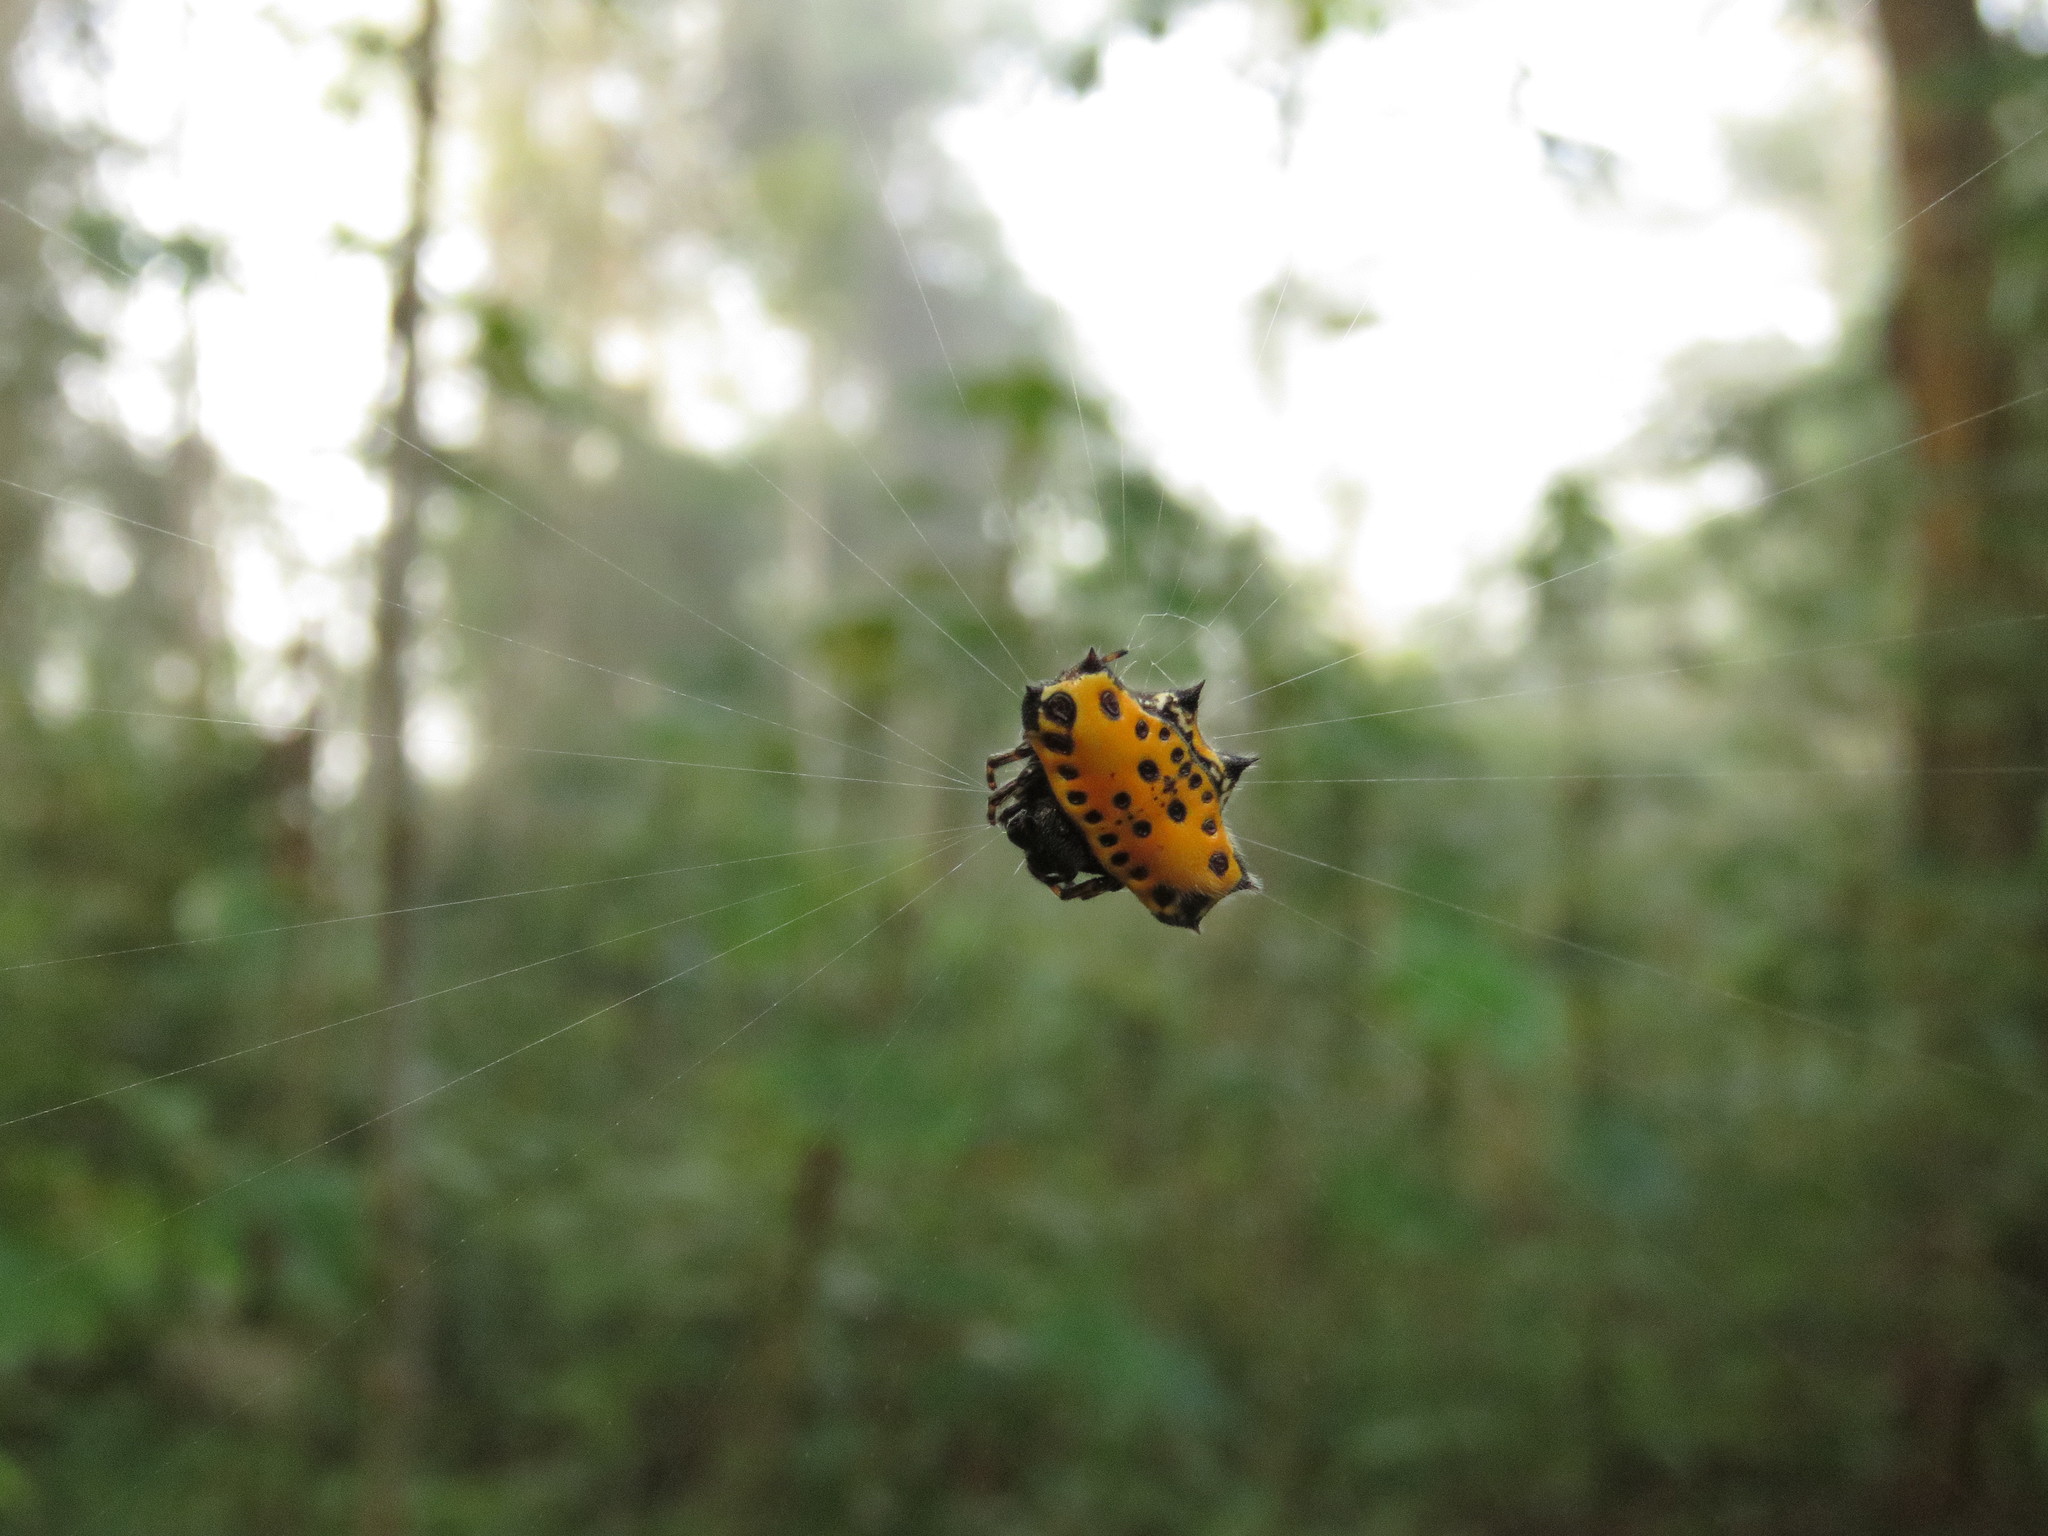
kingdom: Animalia
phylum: Arthropoda
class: Arachnida
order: Araneae
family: Araneidae
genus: Gasteracantha
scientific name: Gasteracantha cancriformis
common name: Orb weavers
